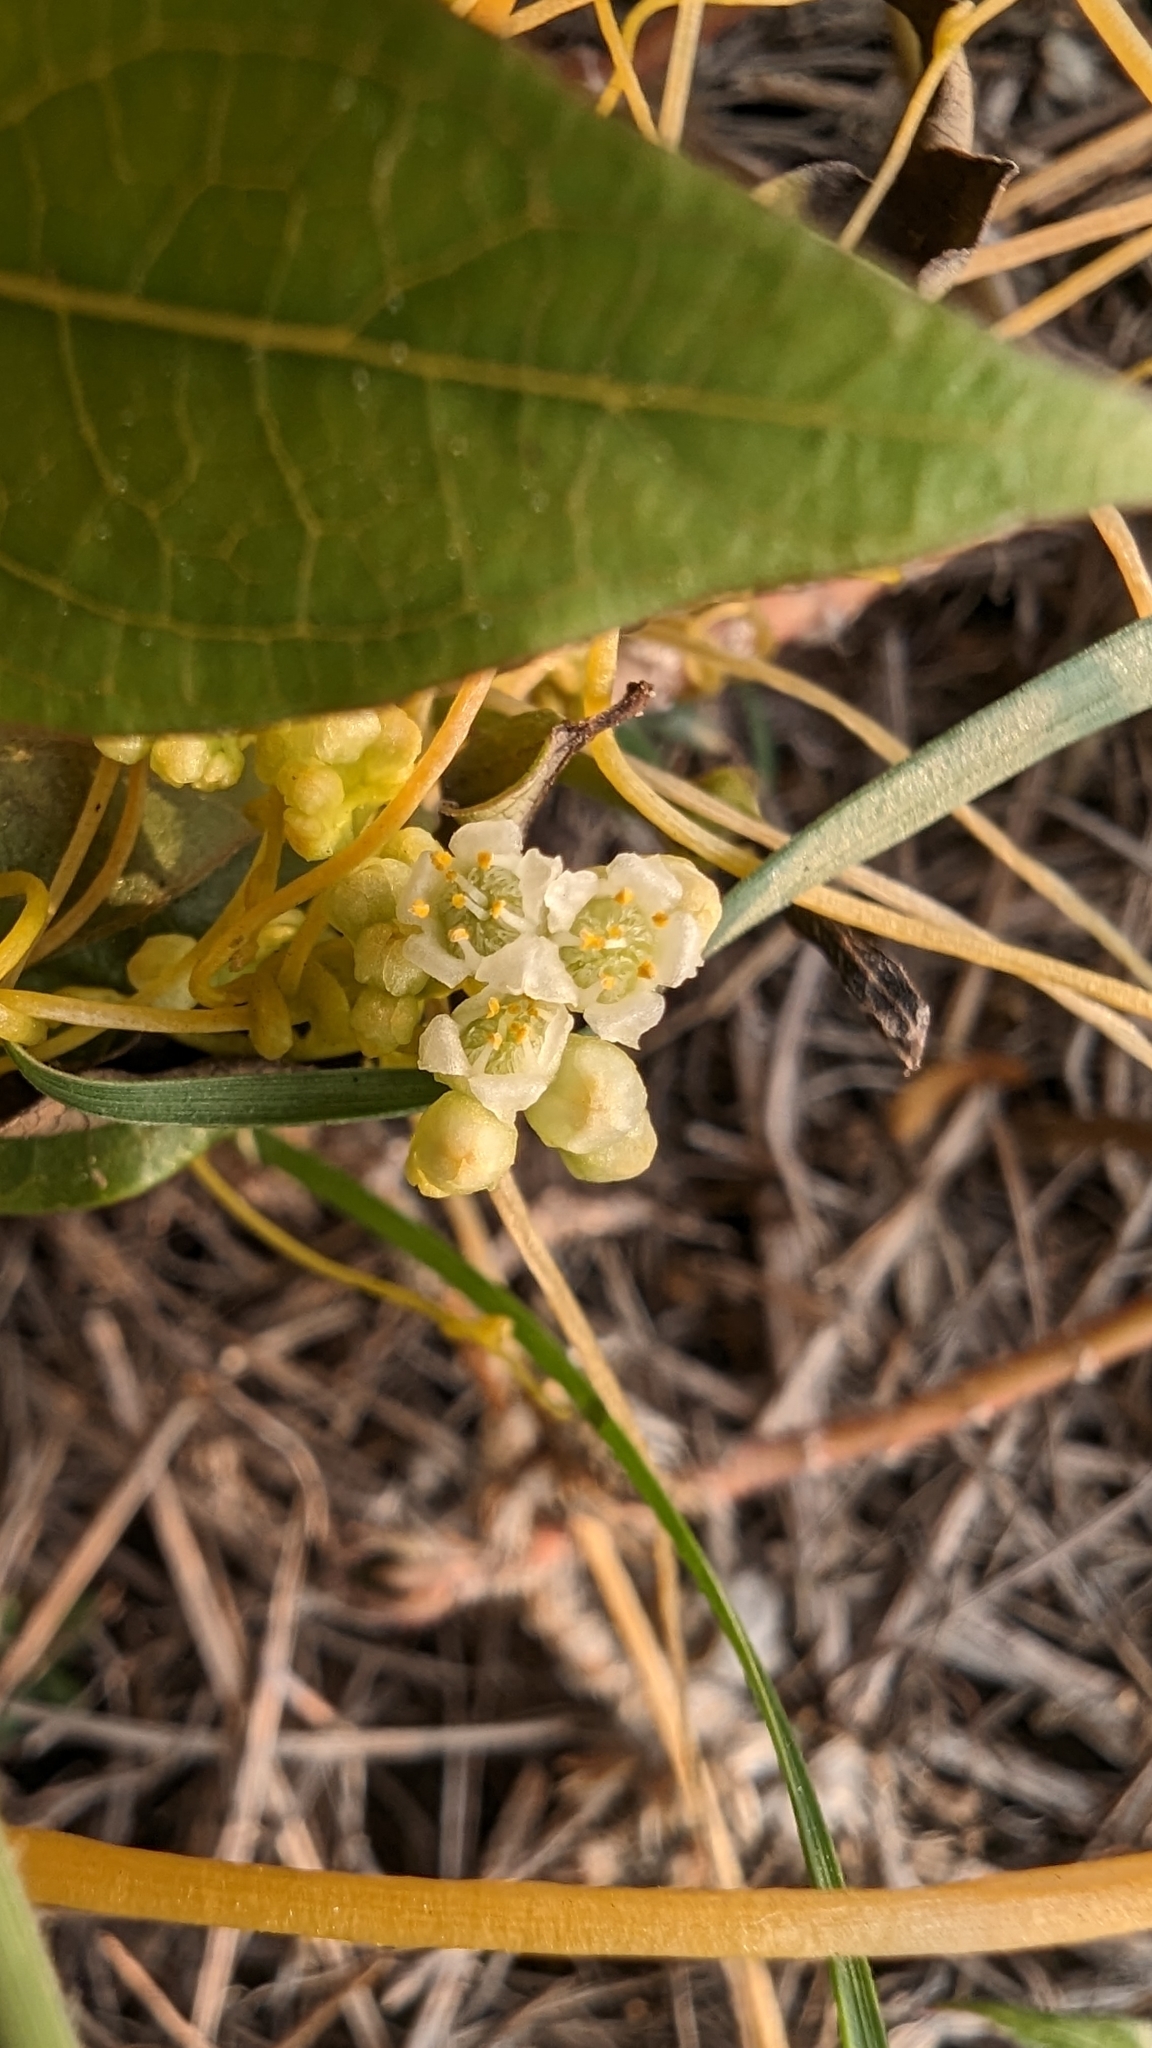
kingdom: Plantae
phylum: Tracheophyta
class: Magnoliopsida
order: Solanales
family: Convolvulaceae
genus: Cuscuta
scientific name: Cuscuta campestris
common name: Yellow dodder
